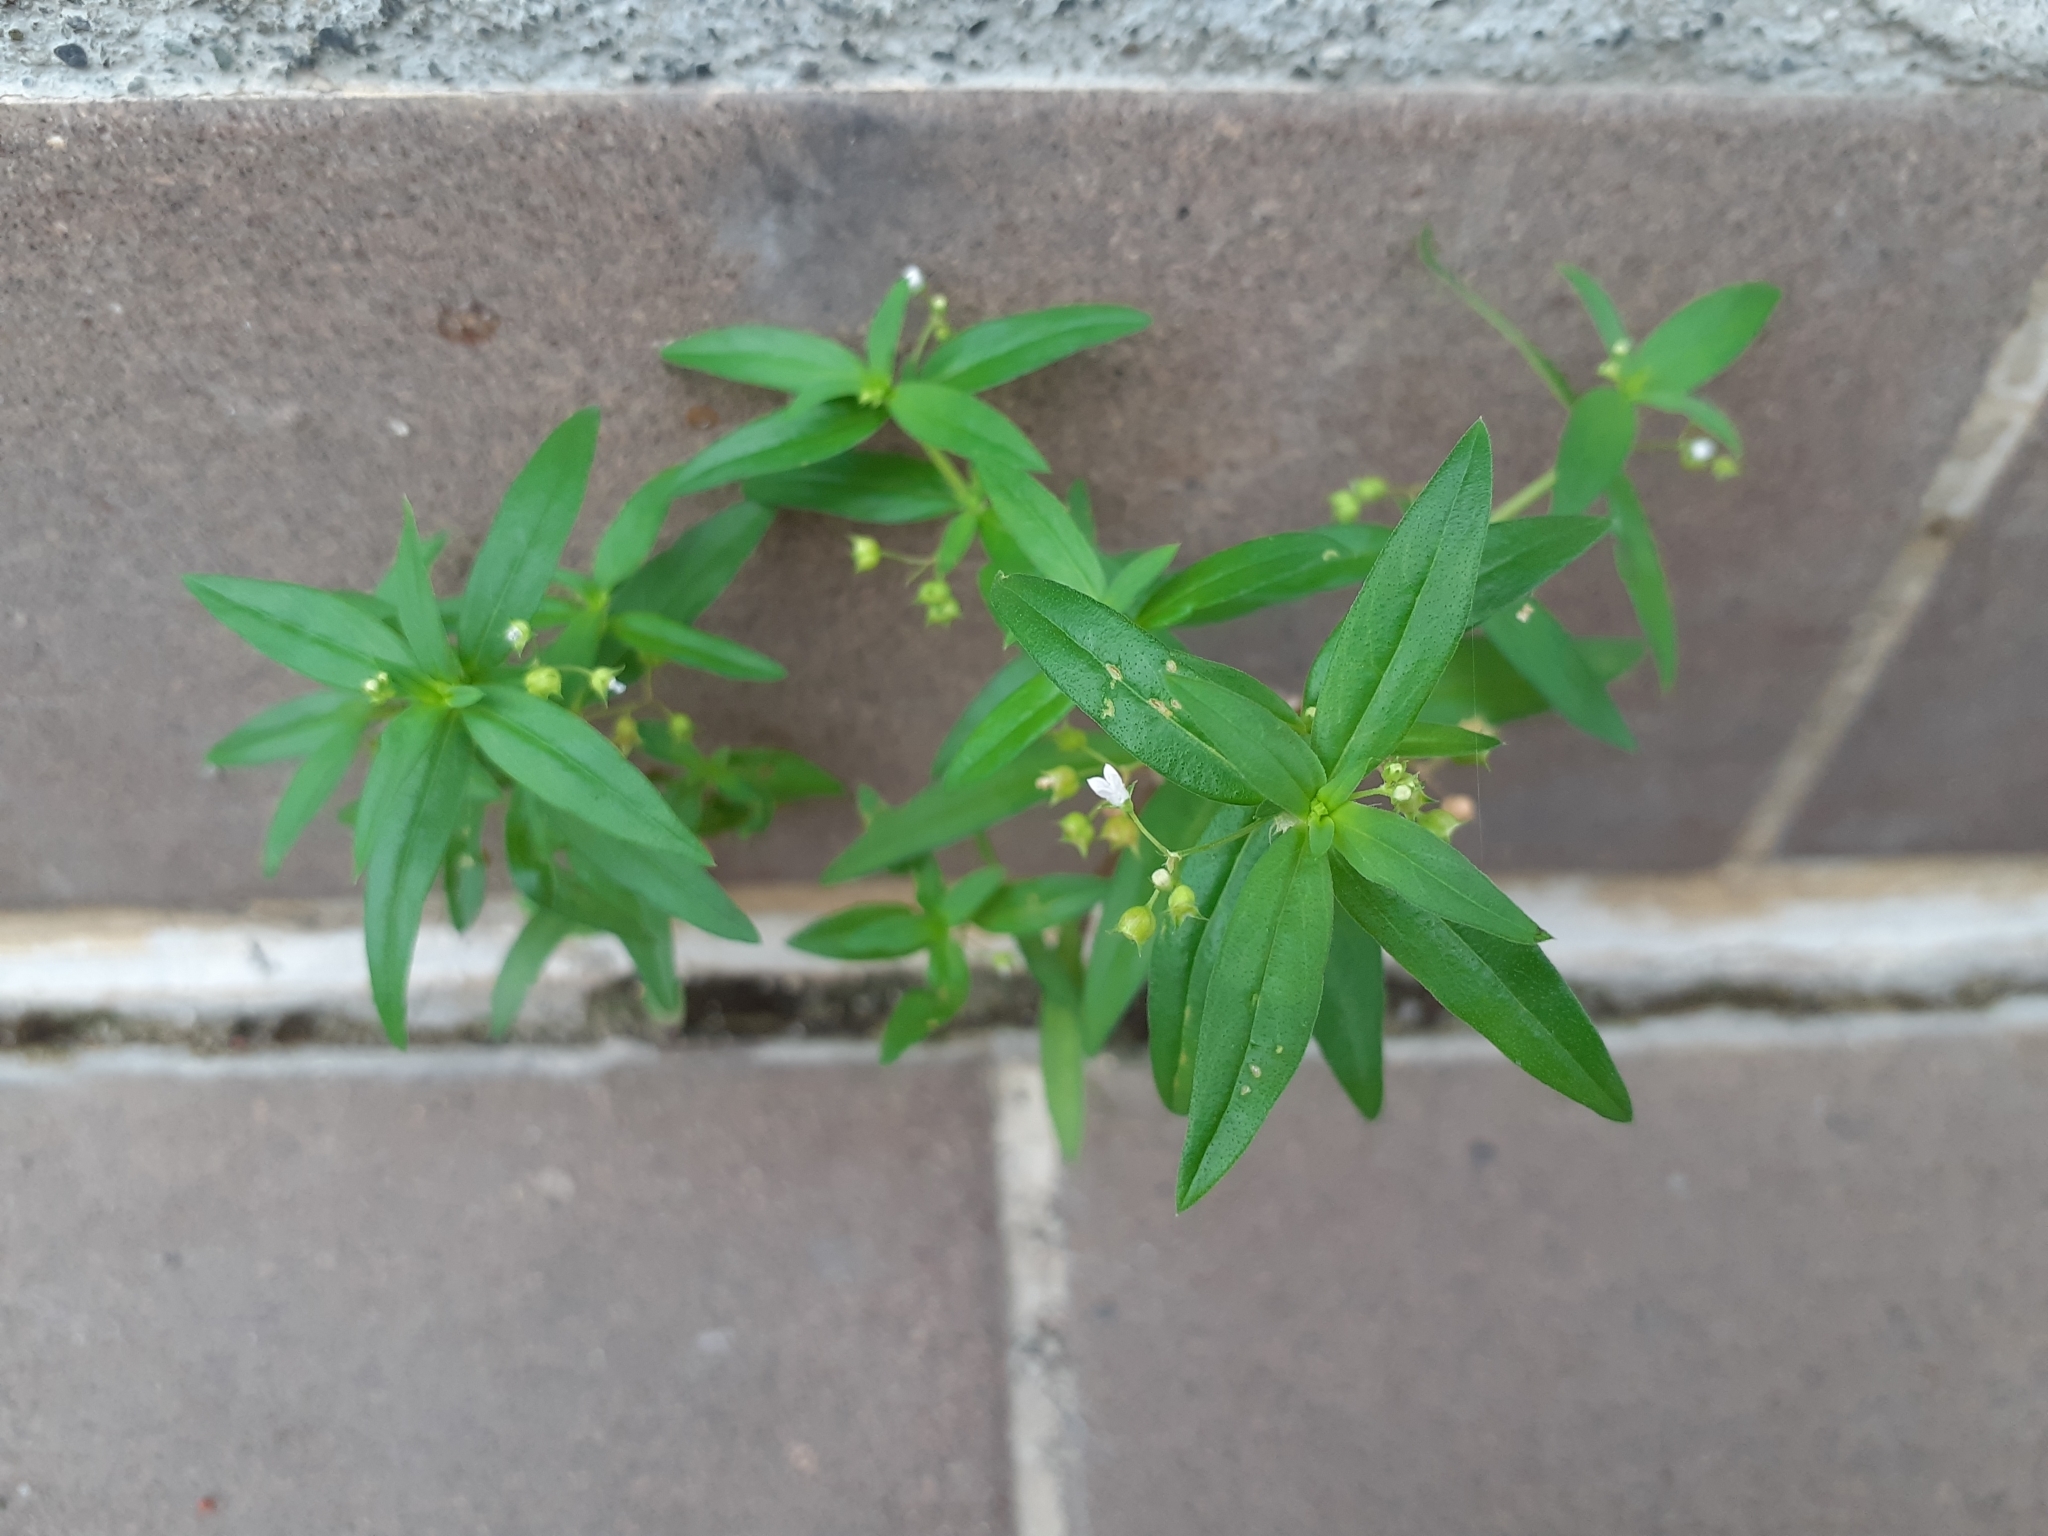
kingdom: Plantae
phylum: Tracheophyta
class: Magnoliopsida
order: Gentianales
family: Rubiaceae
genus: Oldenlandia
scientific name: Oldenlandia corymbosa
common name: Flat-top mille graines
